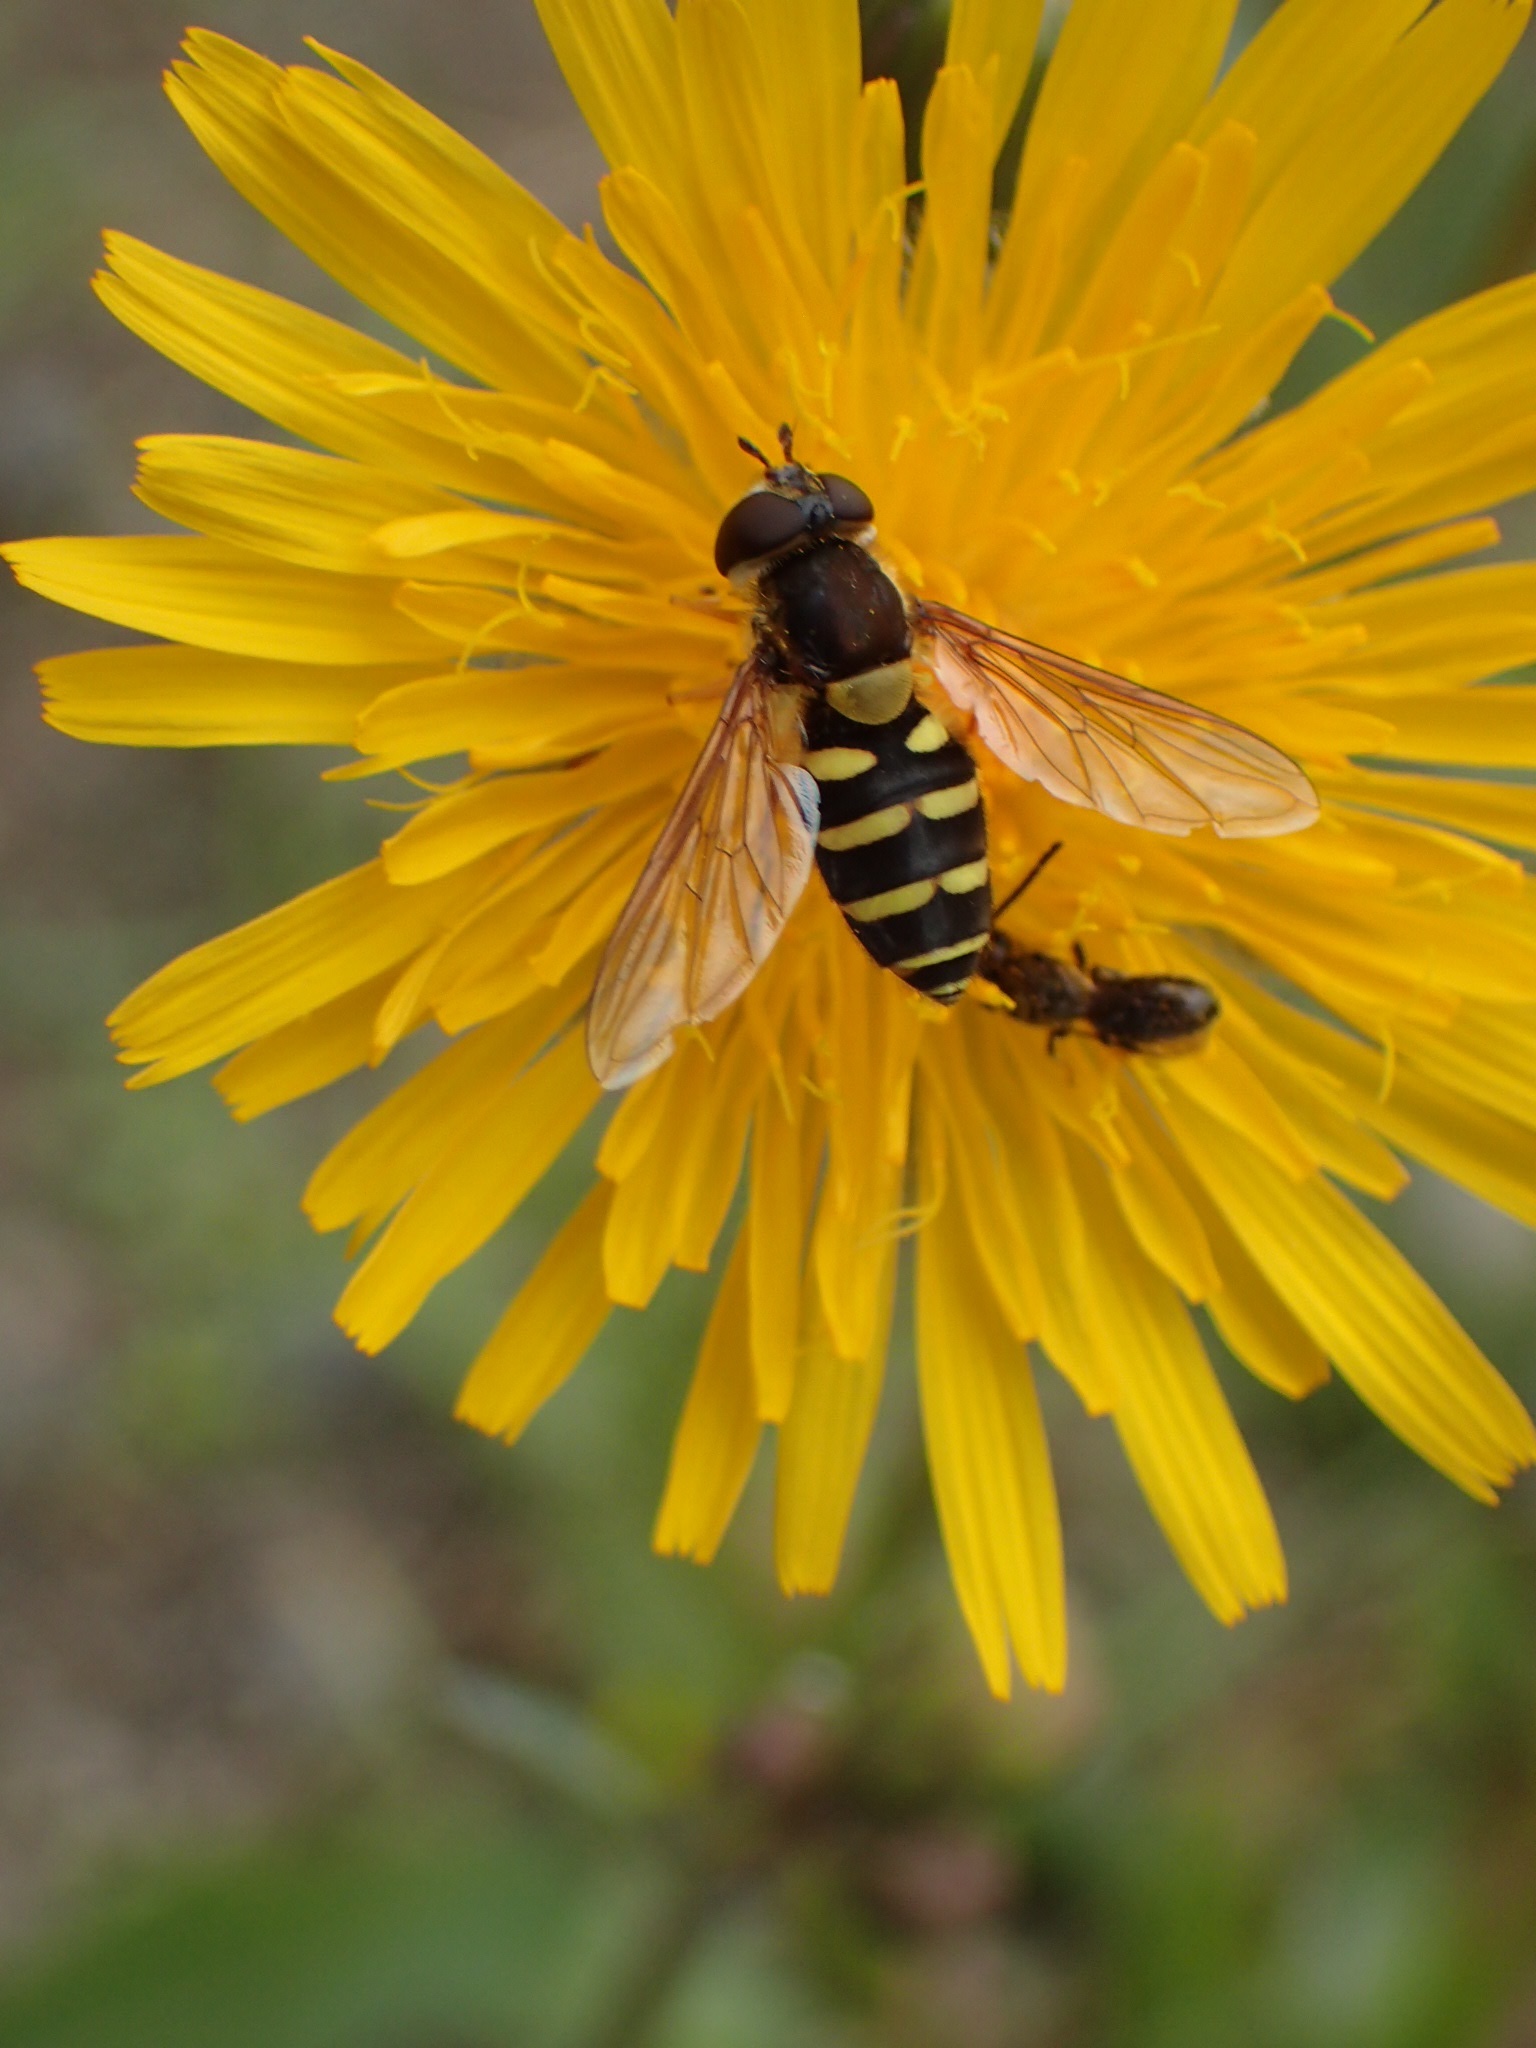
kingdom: Animalia
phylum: Arthropoda
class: Insecta
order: Diptera
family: Syrphidae
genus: Syrphus
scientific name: Syrphus
